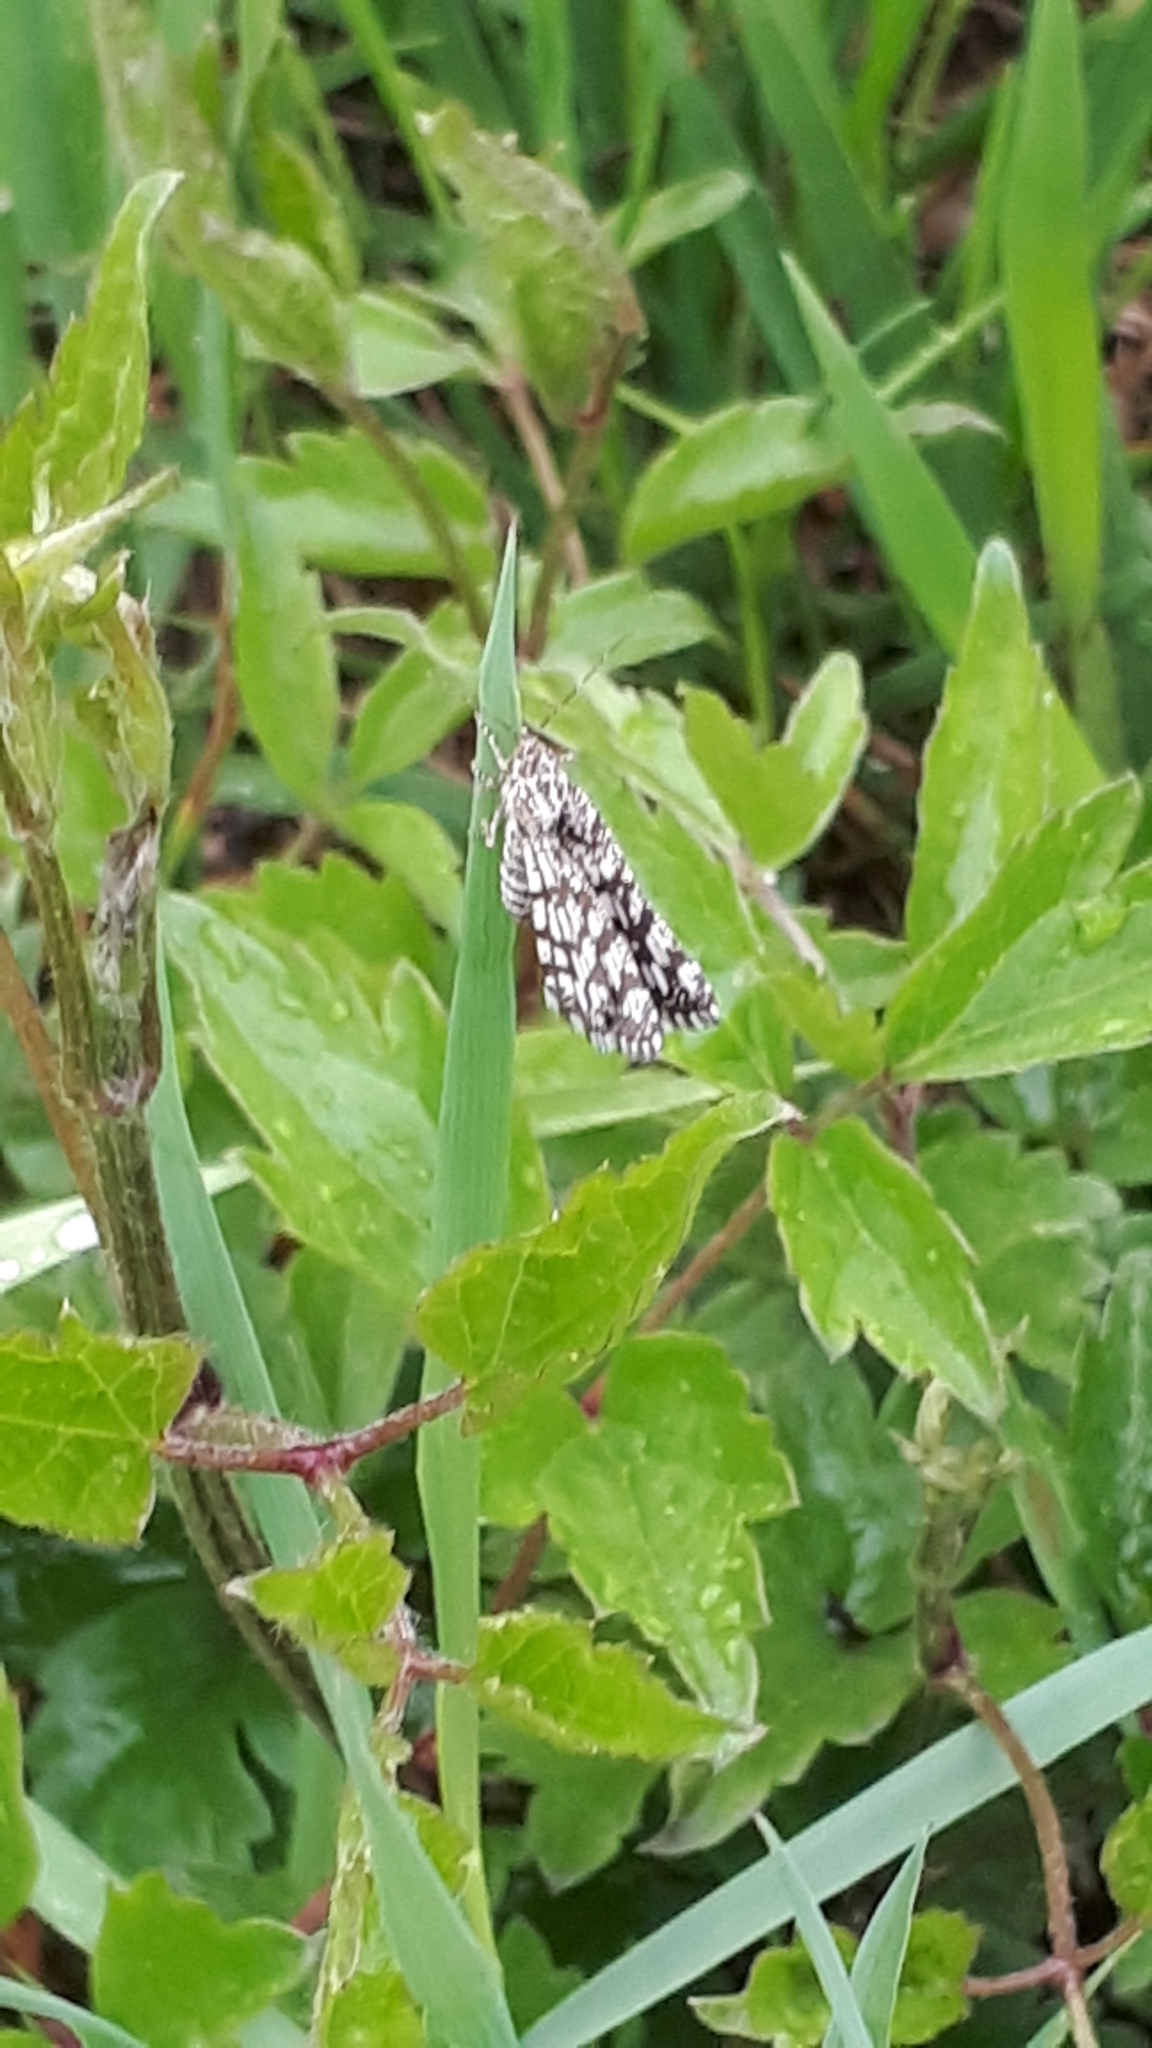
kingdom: Animalia
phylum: Arthropoda
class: Insecta
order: Lepidoptera
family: Geometridae
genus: Chiasmia
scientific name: Chiasmia clathrata
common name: Latticed heath
